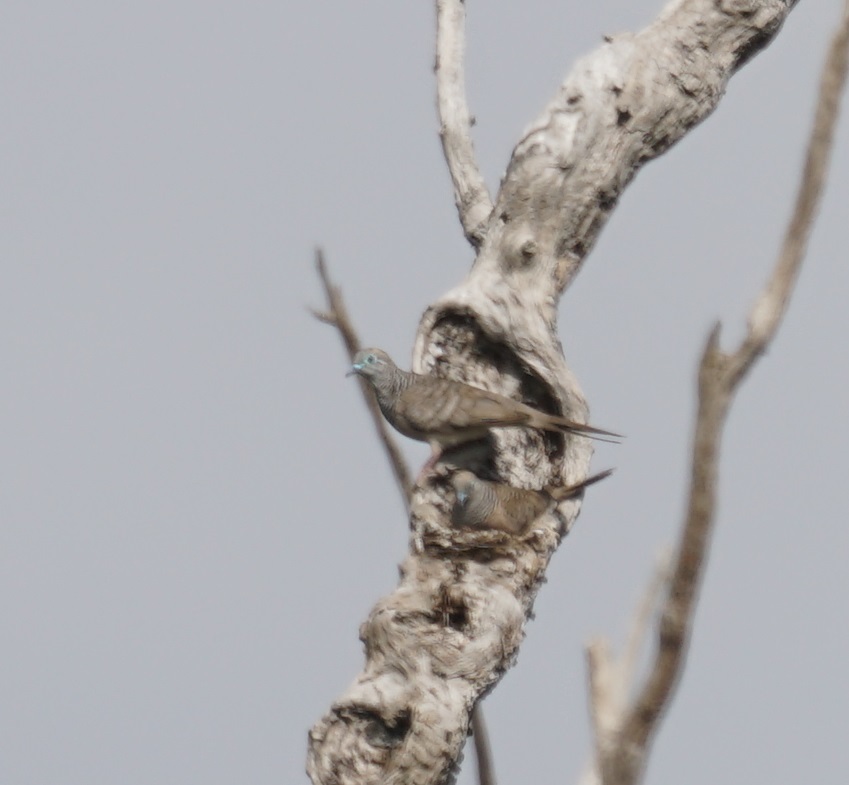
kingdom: Animalia
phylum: Chordata
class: Aves
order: Columbiformes
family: Columbidae
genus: Geopelia
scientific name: Geopelia placida
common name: Peaceful dove
